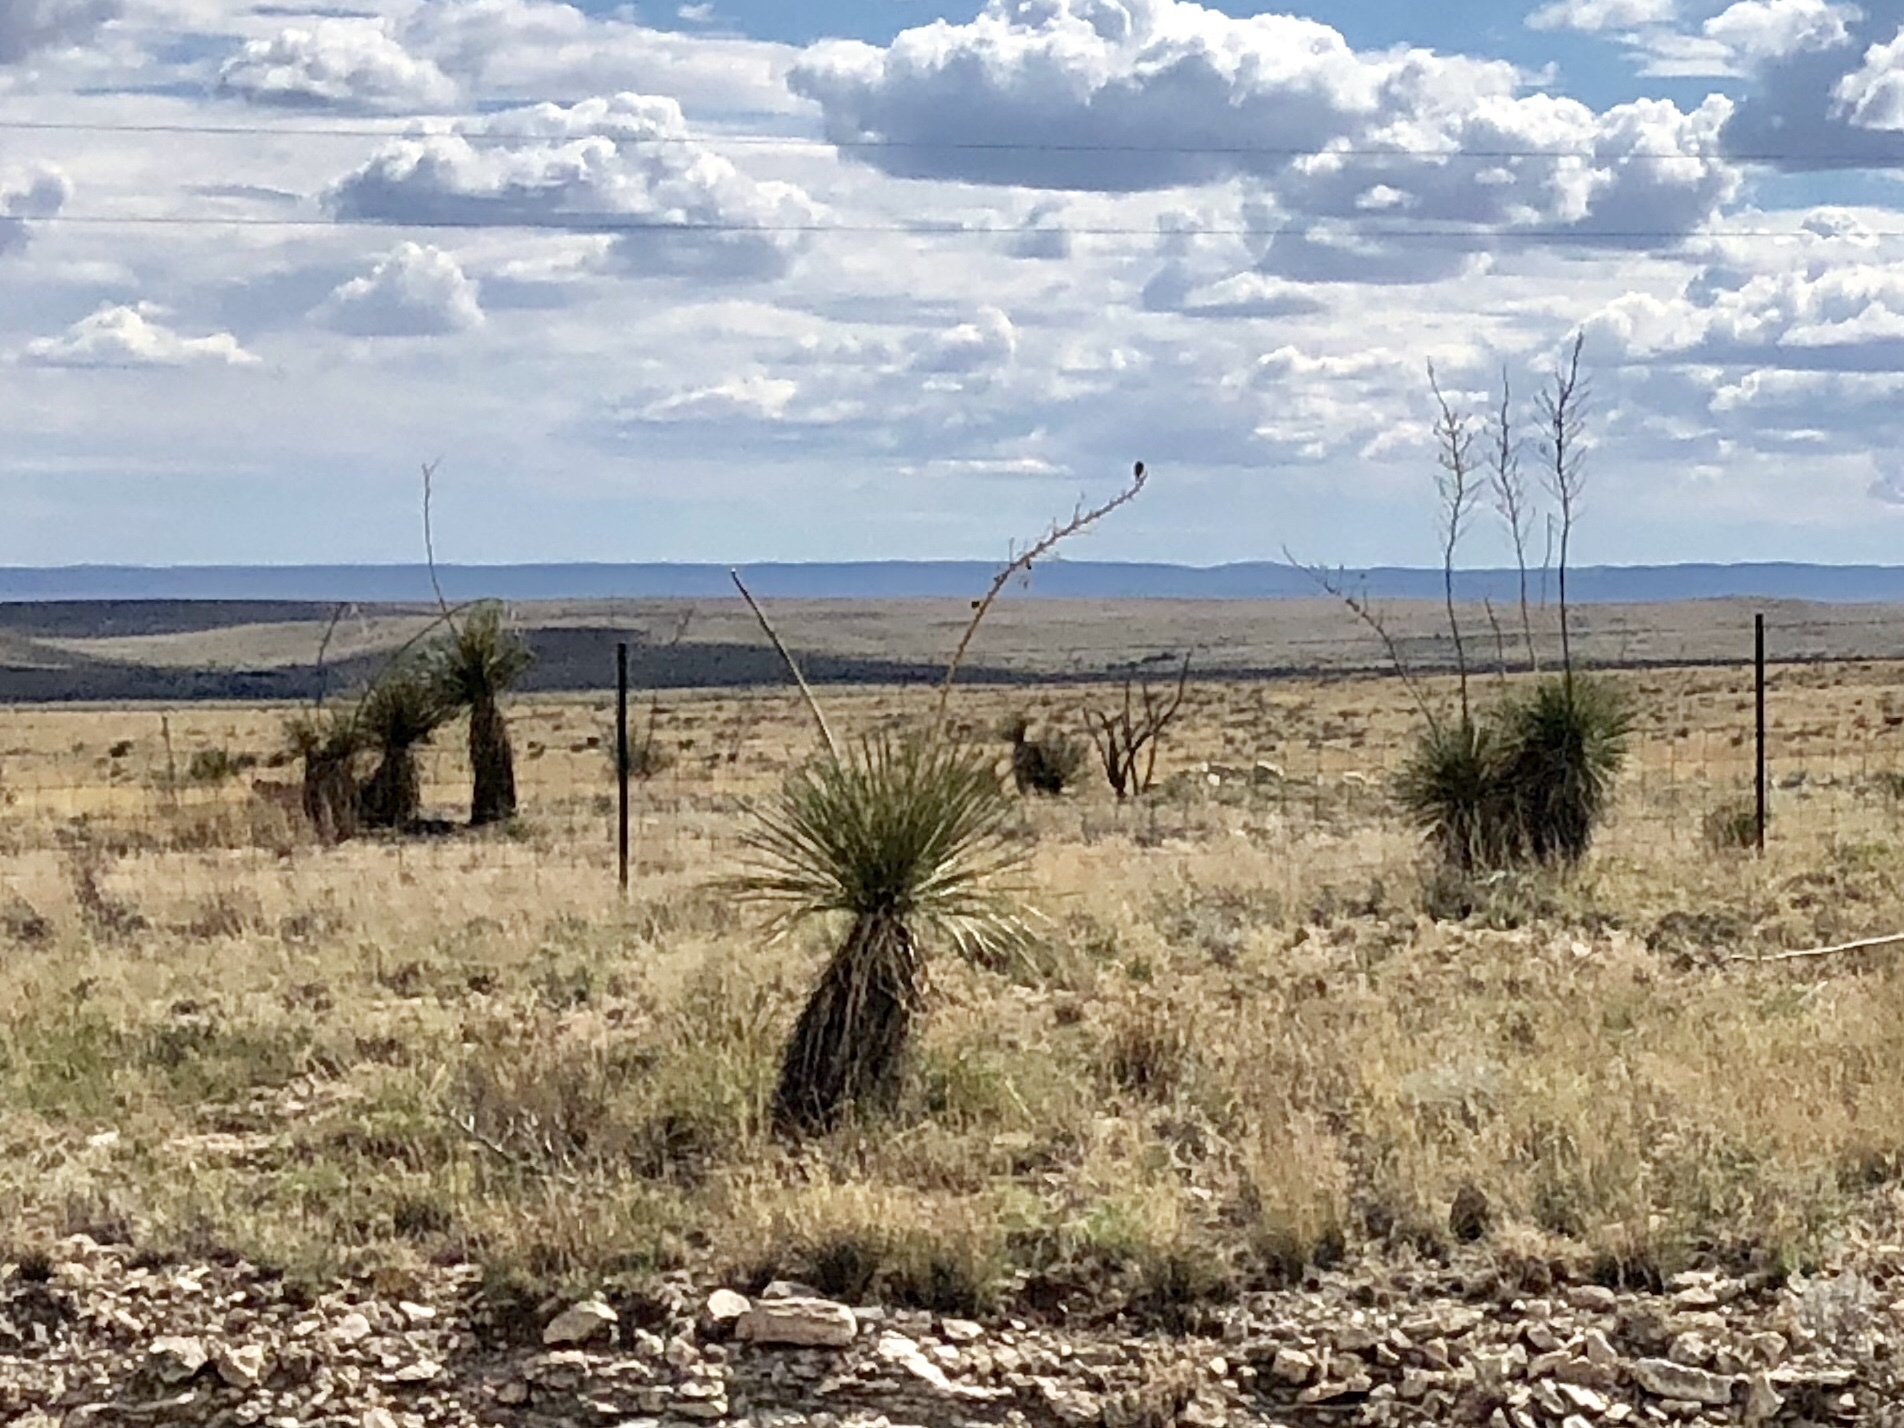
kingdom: Plantae
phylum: Tracheophyta
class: Liliopsida
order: Asparagales
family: Asparagaceae
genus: Yucca
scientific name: Yucca elata
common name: Palmella
